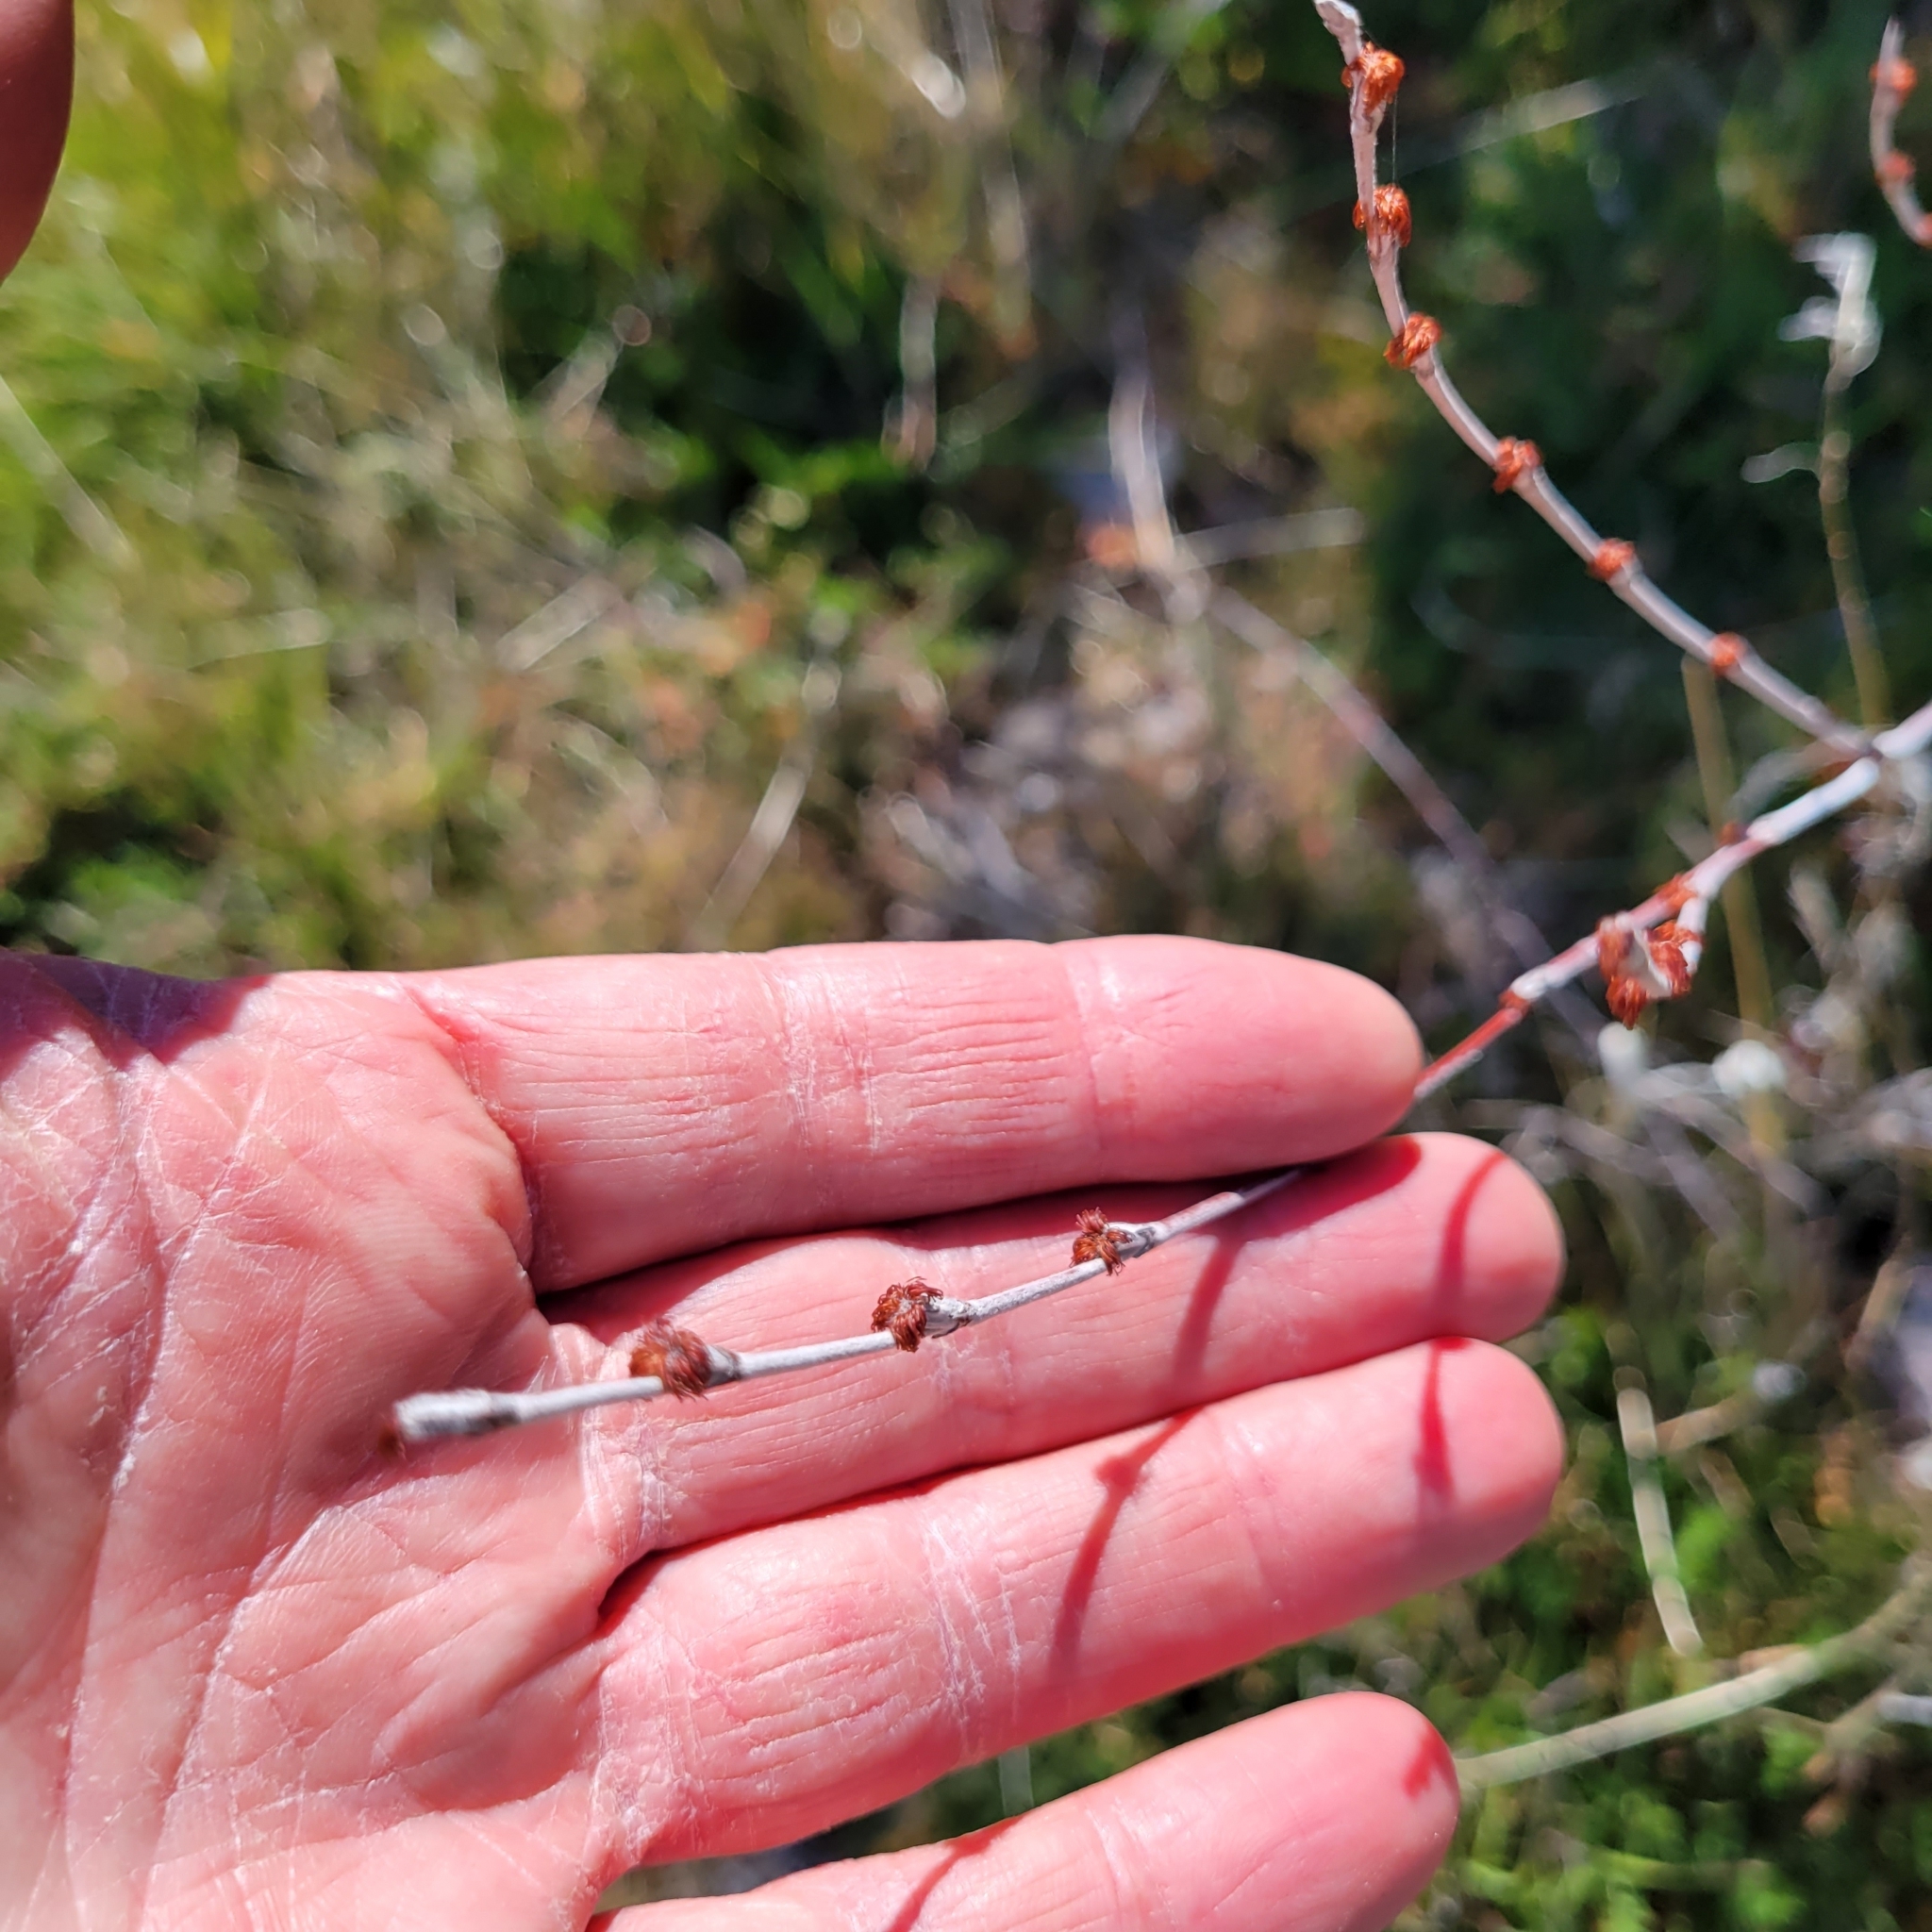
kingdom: Plantae
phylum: Tracheophyta
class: Magnoliopsida
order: Caryophyllales
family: Polygonaceae
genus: Eriogonum
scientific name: Eriogonum elongatum
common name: Long-stem wild buckwheat
